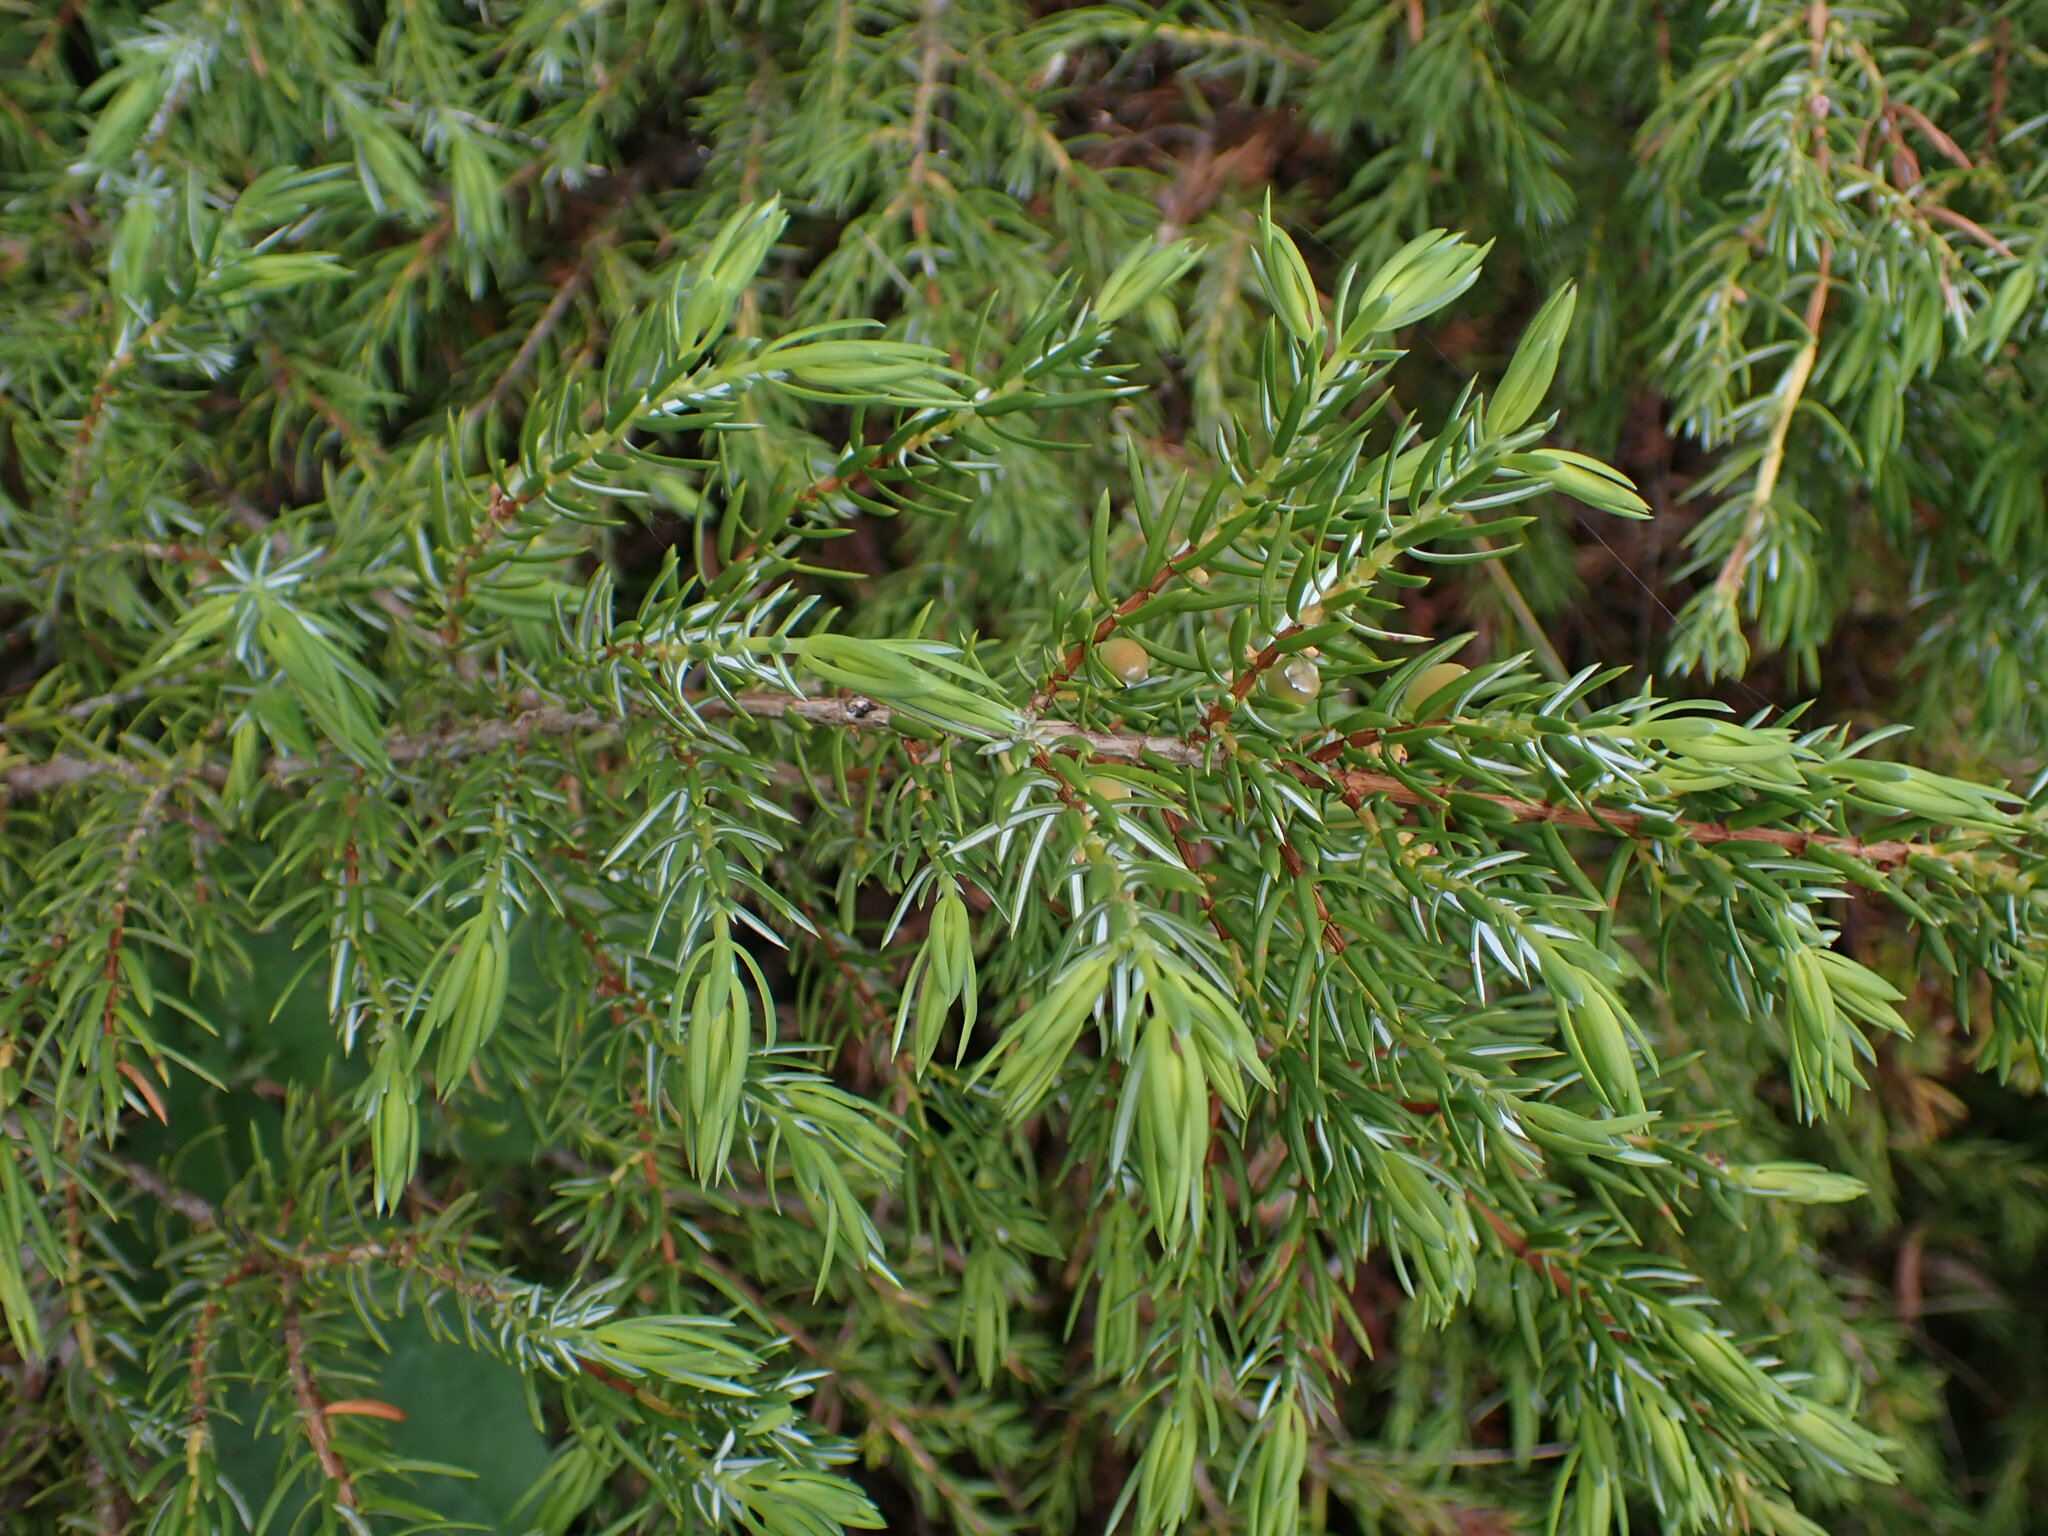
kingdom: Plantae
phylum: Tracheophyta
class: Pinopsida
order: Pinales
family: Cupressaceae
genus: Juniperus
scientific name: Juniperus communis
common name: Common juniper
